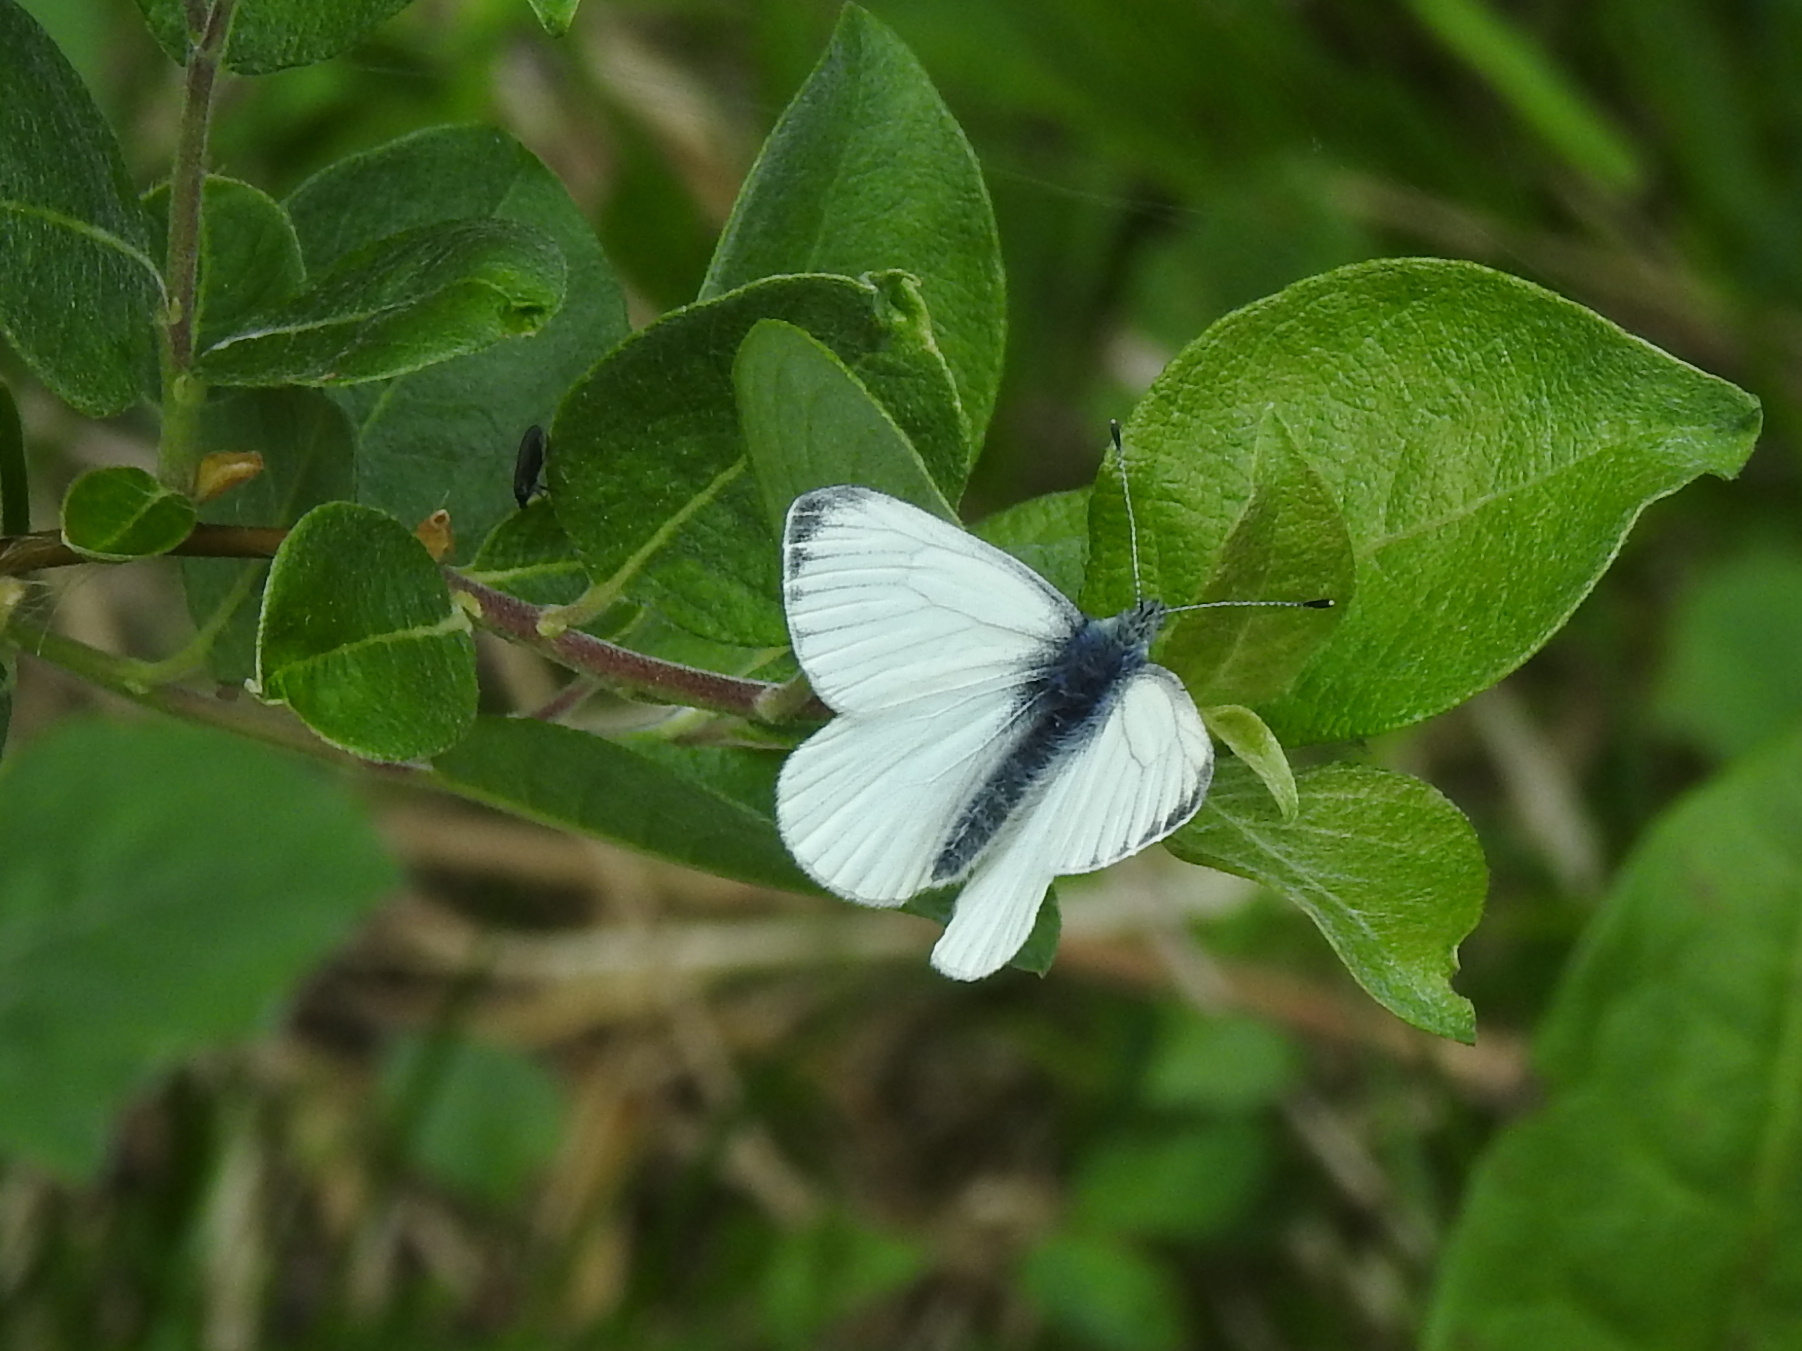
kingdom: Animalia
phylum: Arthropoda
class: Insecta
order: Lepidoptera
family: Pieridae
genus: Pieris
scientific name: Pieris napi
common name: Green-veined white
